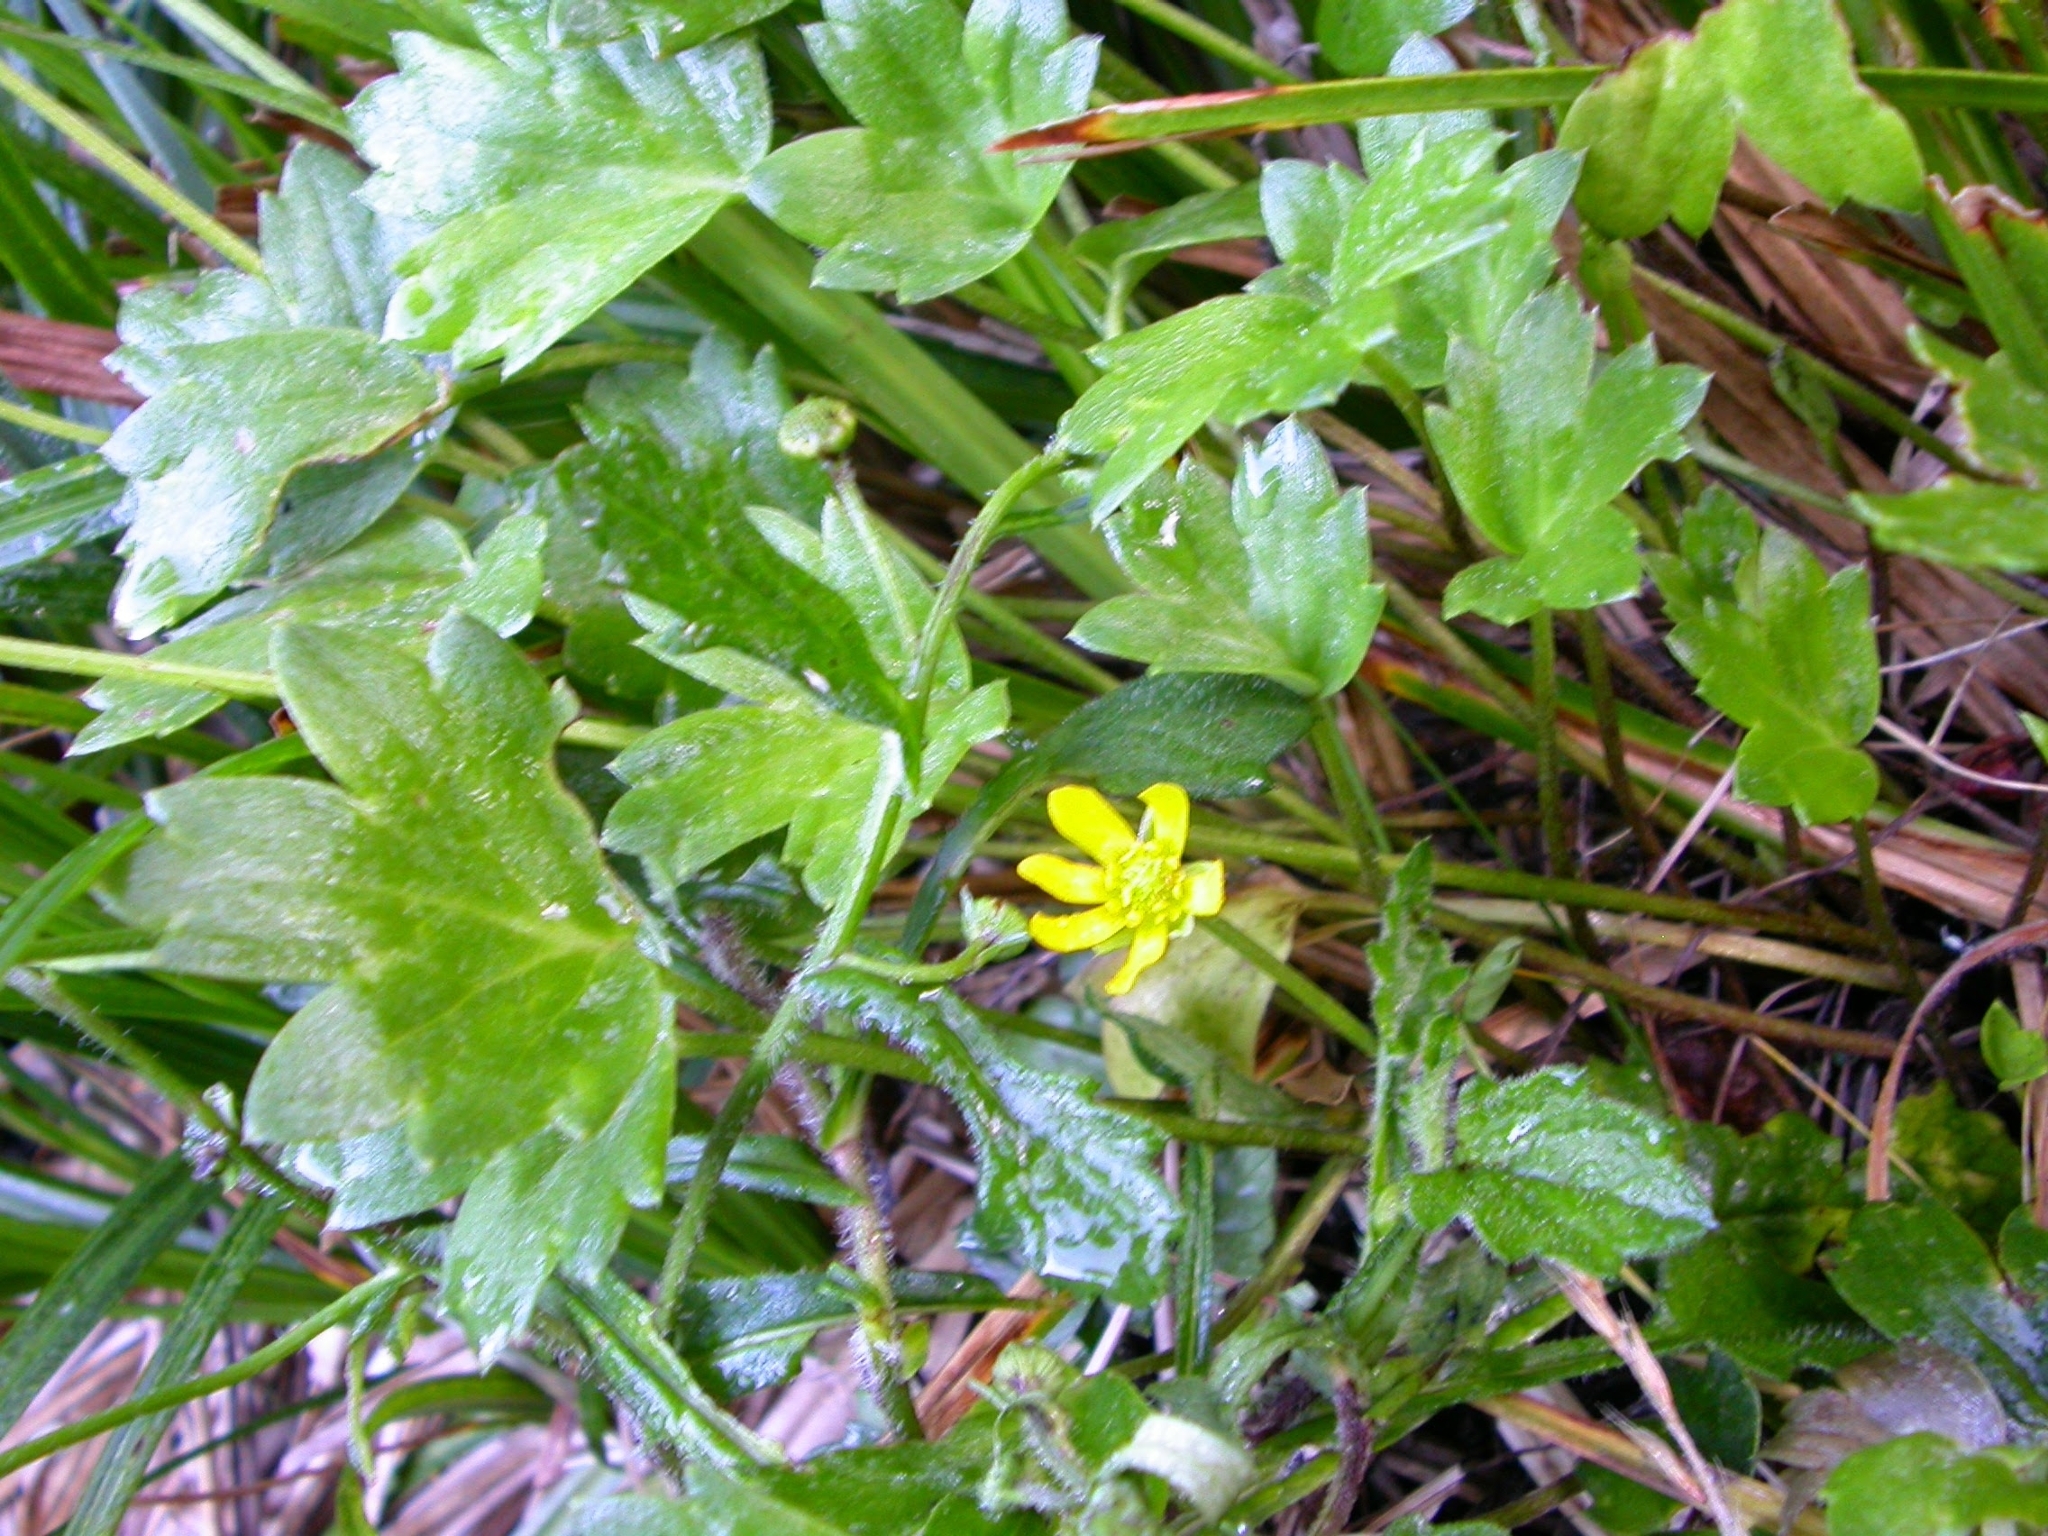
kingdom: Plantae
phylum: Tracheophyta
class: Magnoliopsida
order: Ranunculales
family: Ranunculaceae
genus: Ranunculus
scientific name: Ranunculus lowii
